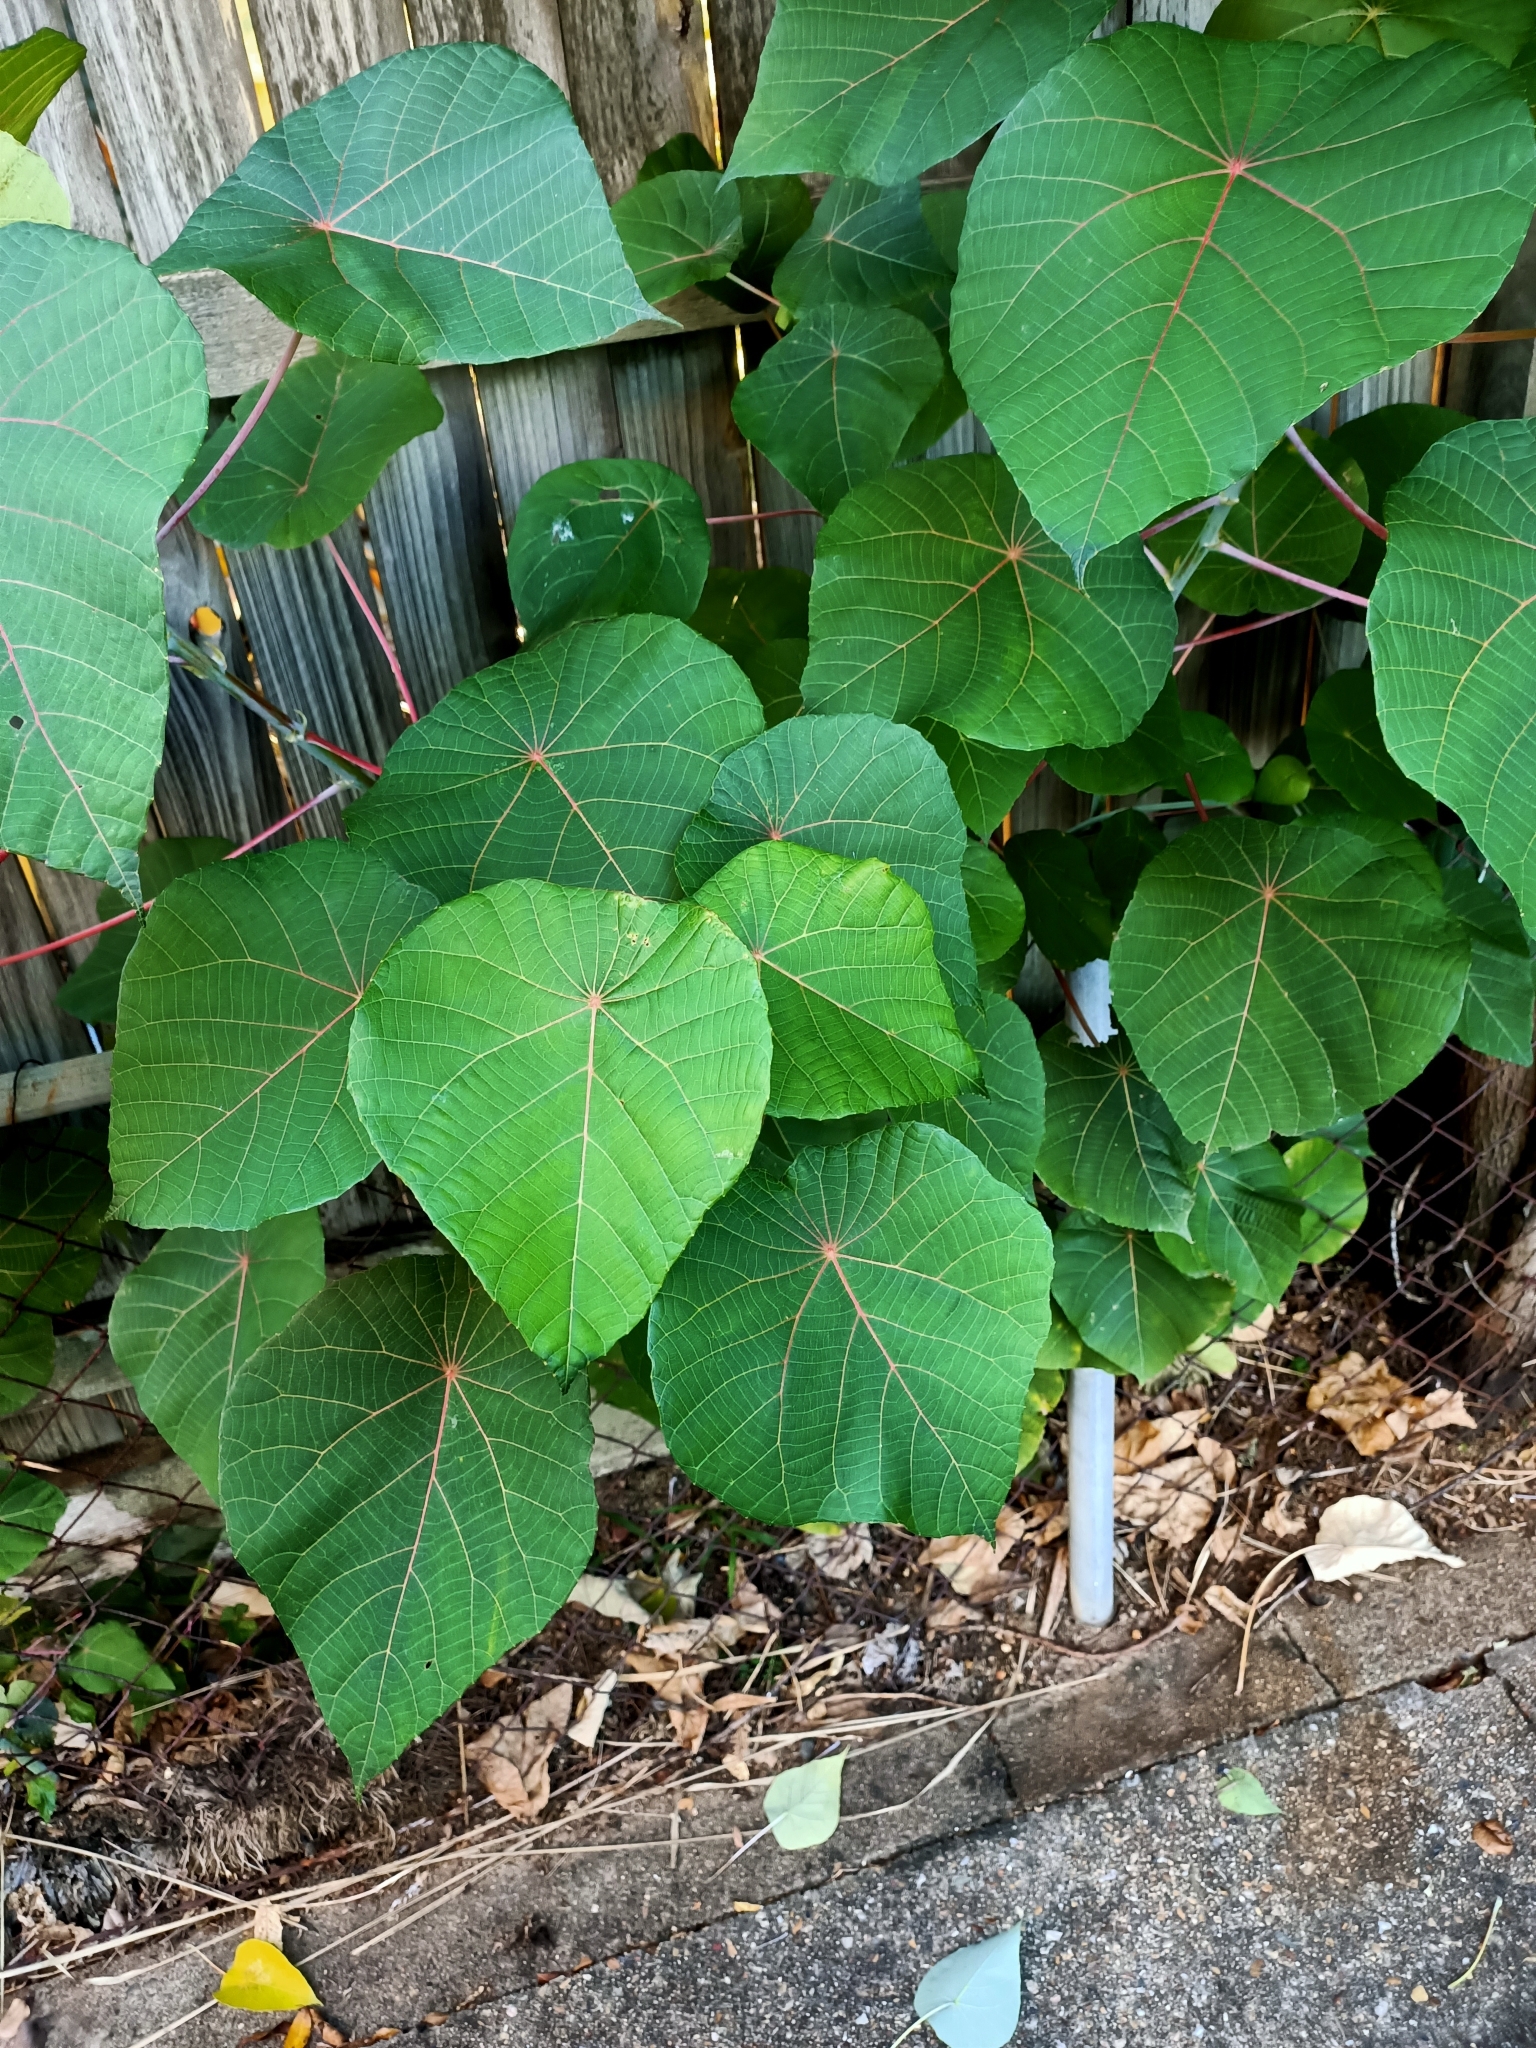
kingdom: Plantae
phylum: Tracheophyta
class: Magnoliopsida
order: Malpighiales
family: Euphorbiaceae
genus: Macaranga
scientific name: Macaranga tanarius
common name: Parasol leaf tree
